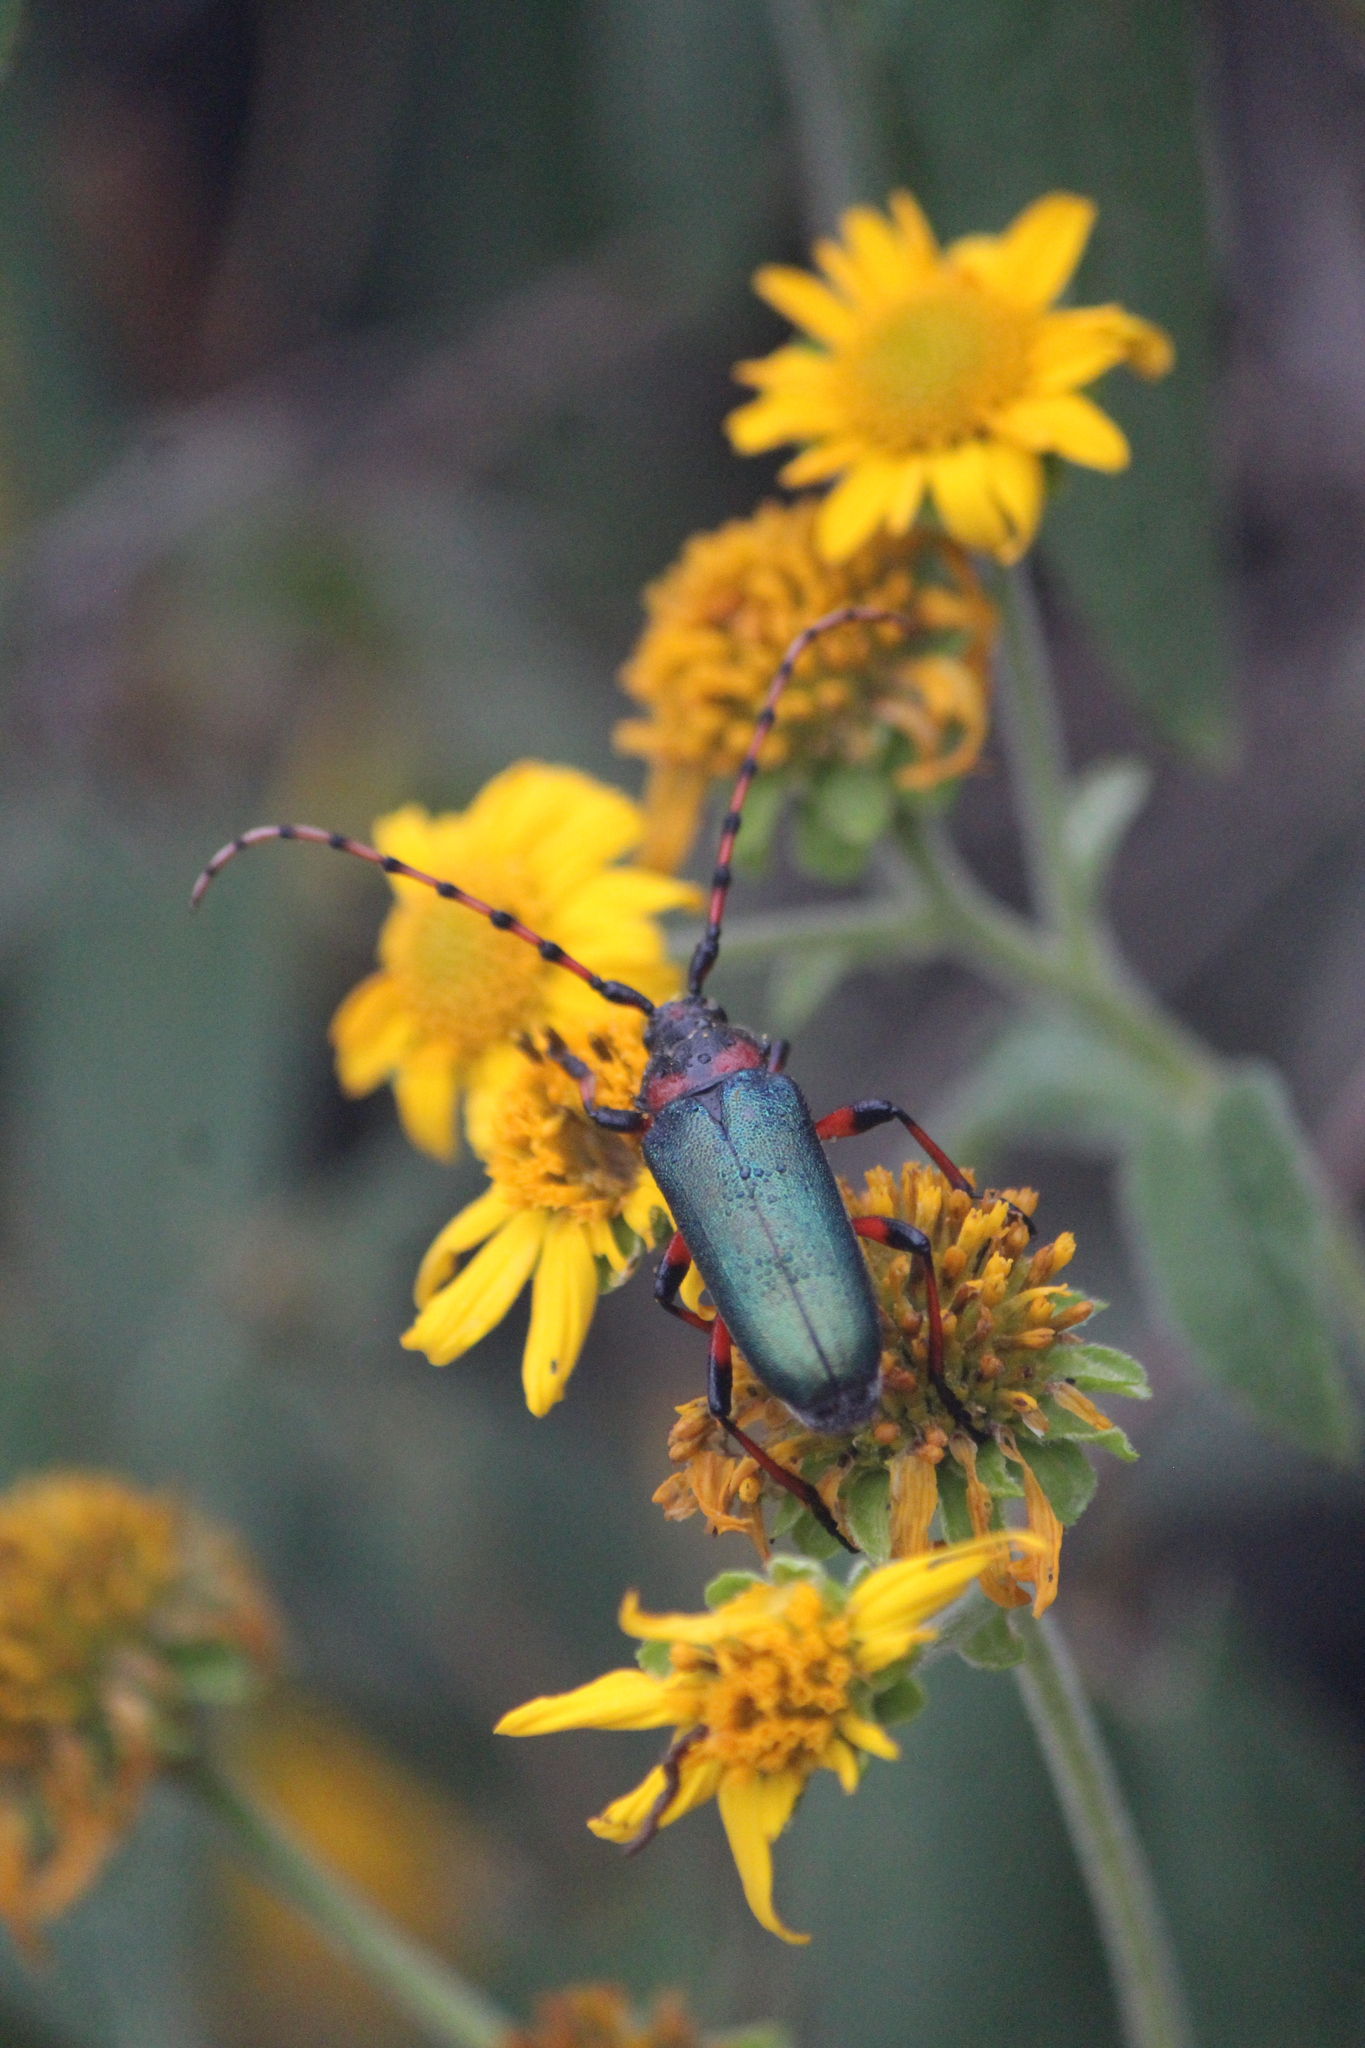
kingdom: Animalia
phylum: Arthropoda
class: Insecta
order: Coleoptera
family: Cerambycidae
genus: Stenaspis
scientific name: Stenaspis verticalis
